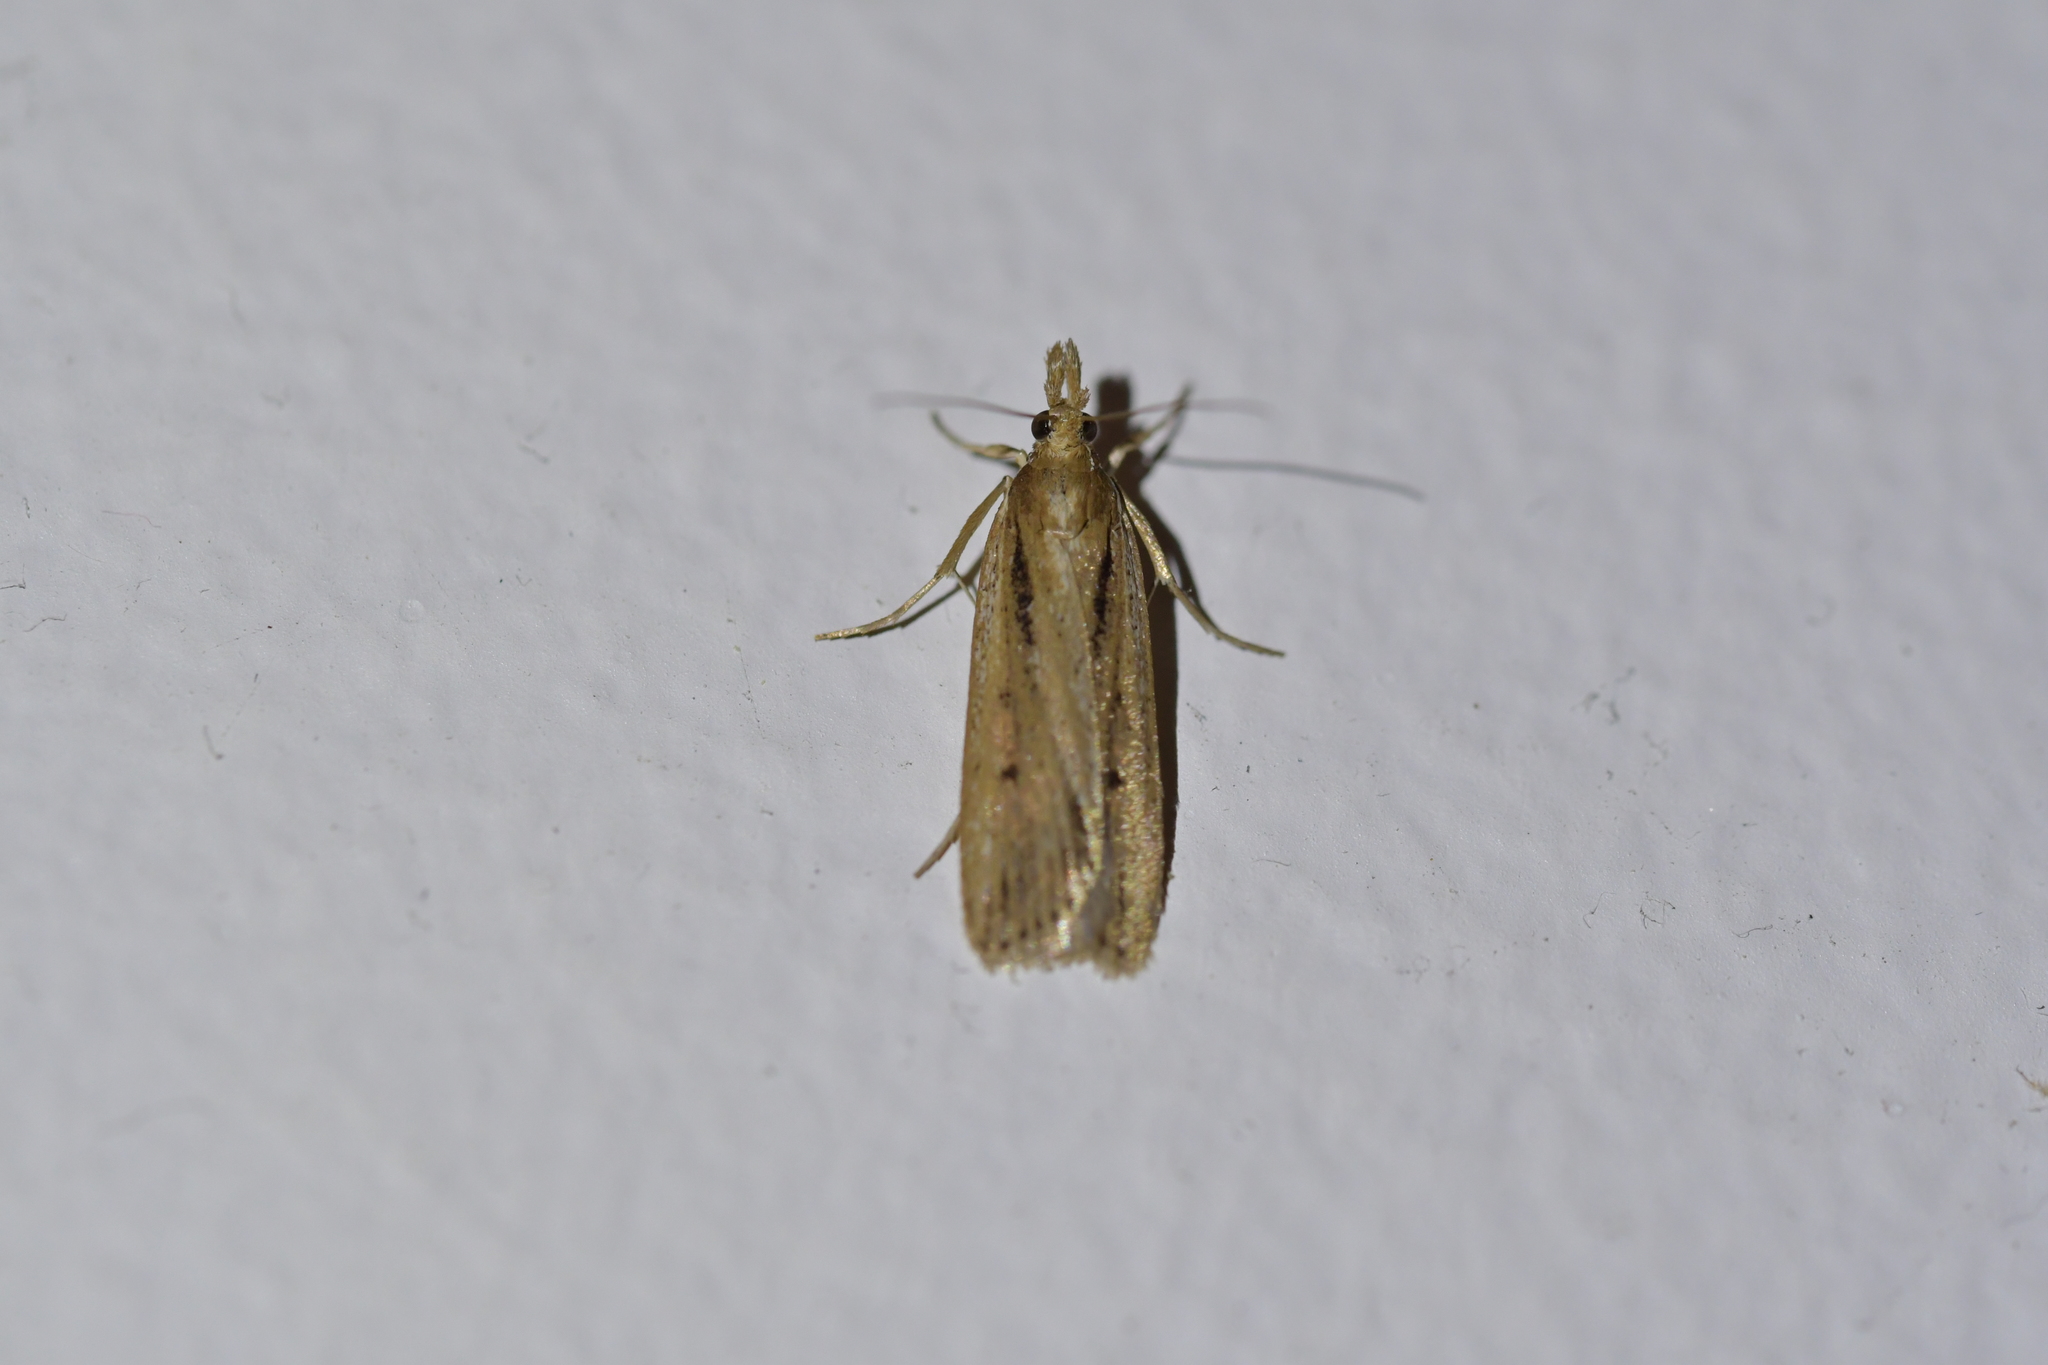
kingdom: Animalia
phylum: Arthropoda
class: Insecta
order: Lepidoptera
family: Crambidae
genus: Eudonia
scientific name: Eudonia sabulosella
